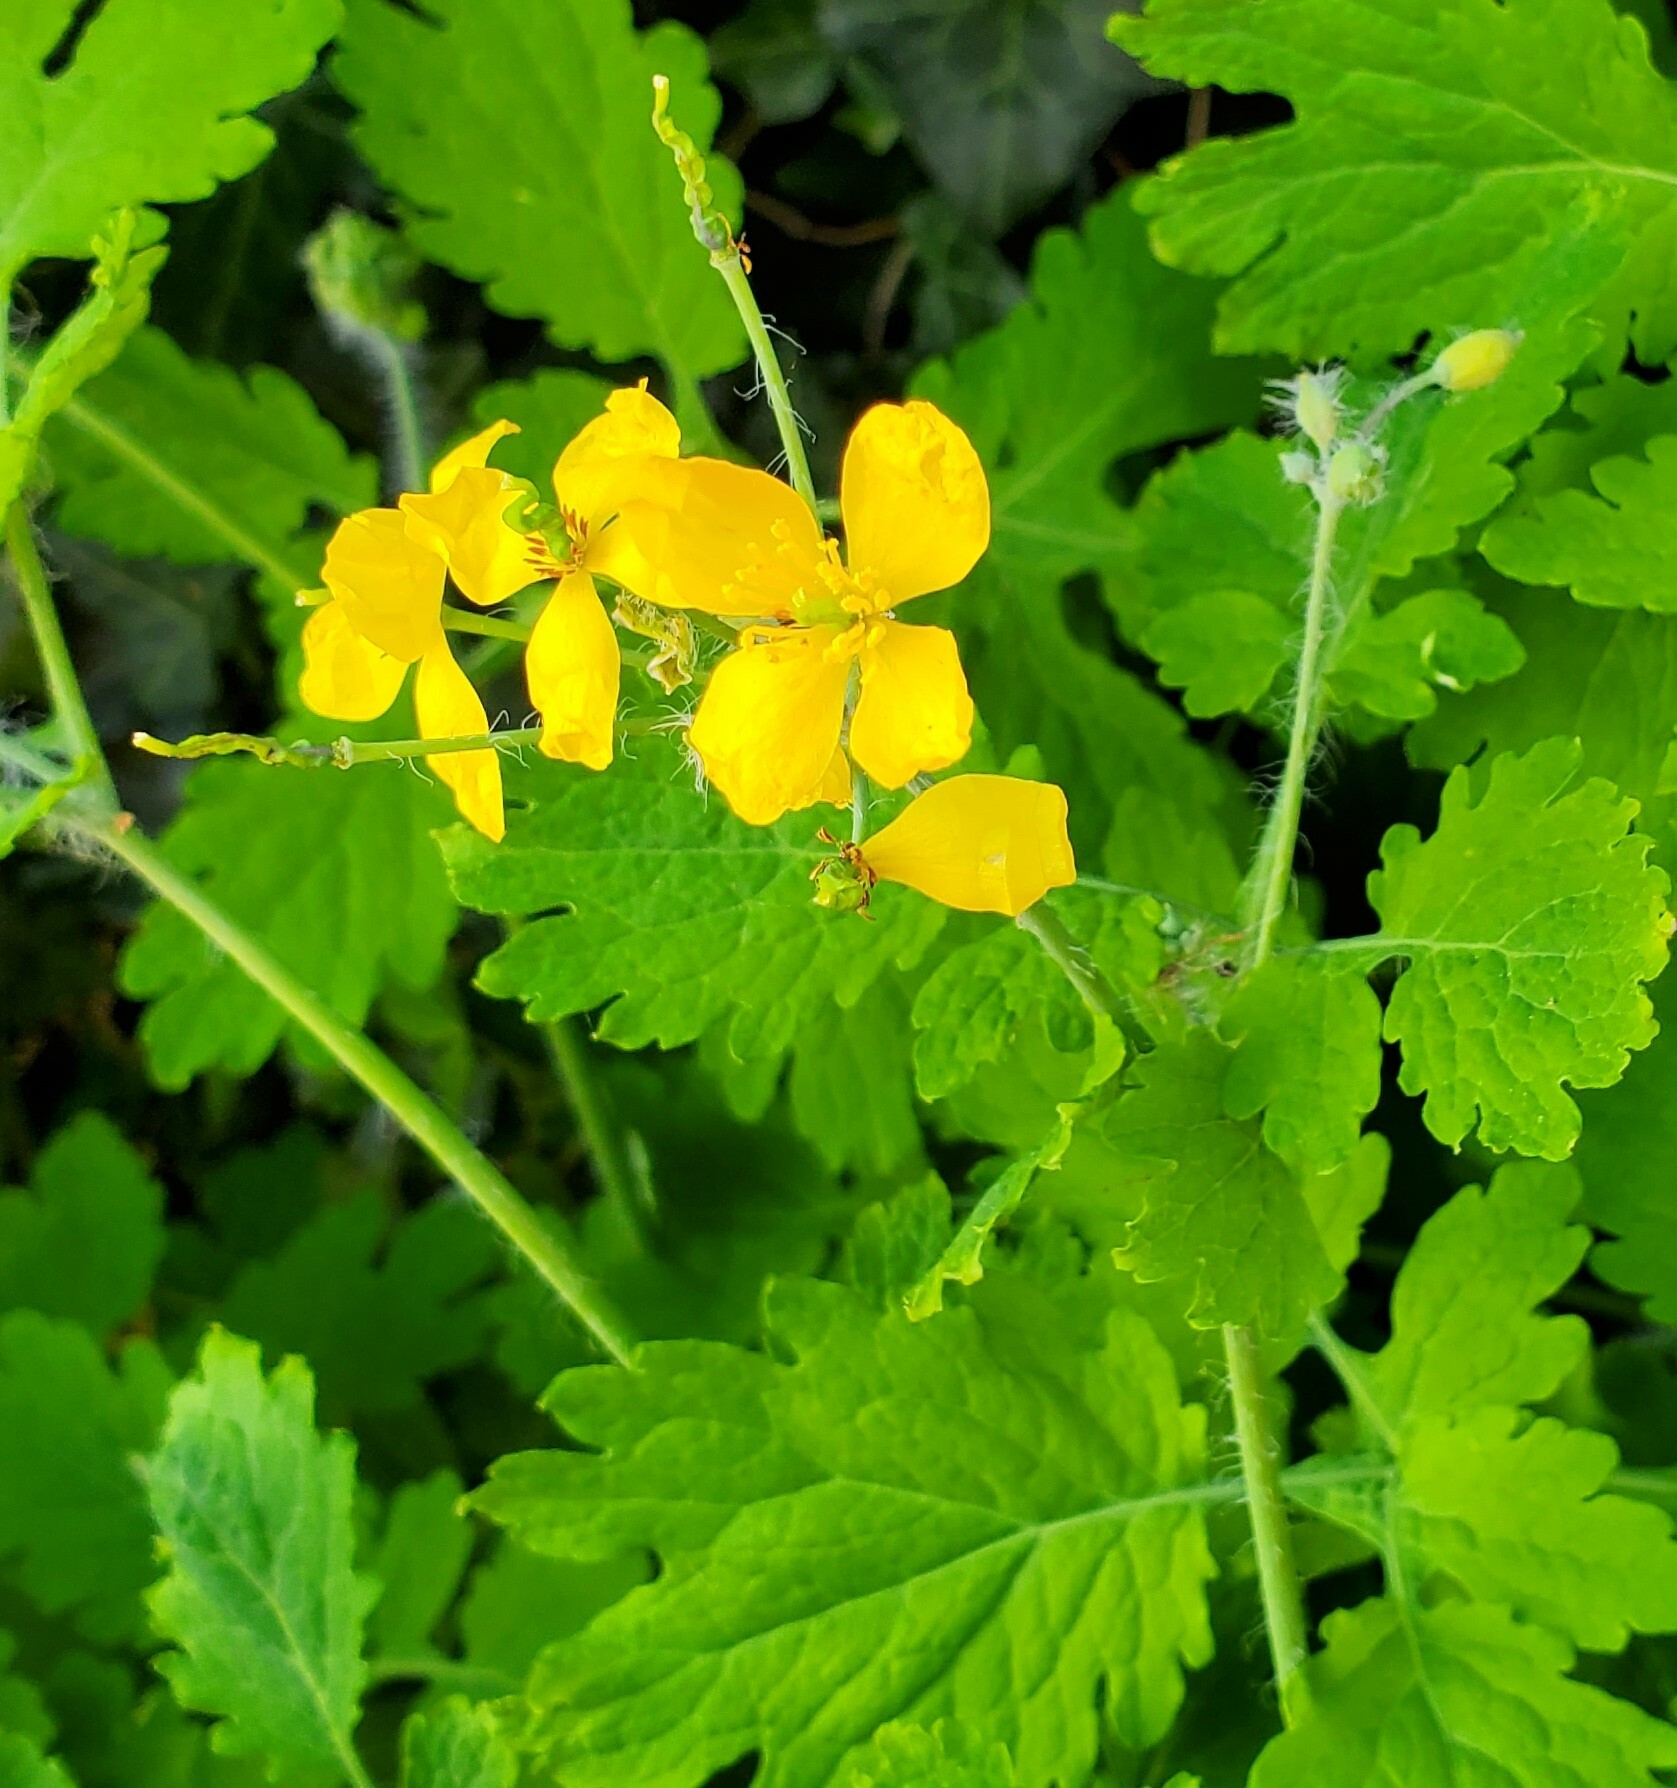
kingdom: Plantae
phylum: Tracheophyta
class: Magnoliopsida
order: Ranunculales
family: Papaveraceae
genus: Chelidonium
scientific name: Chelidonium majus
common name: Greater celandine
